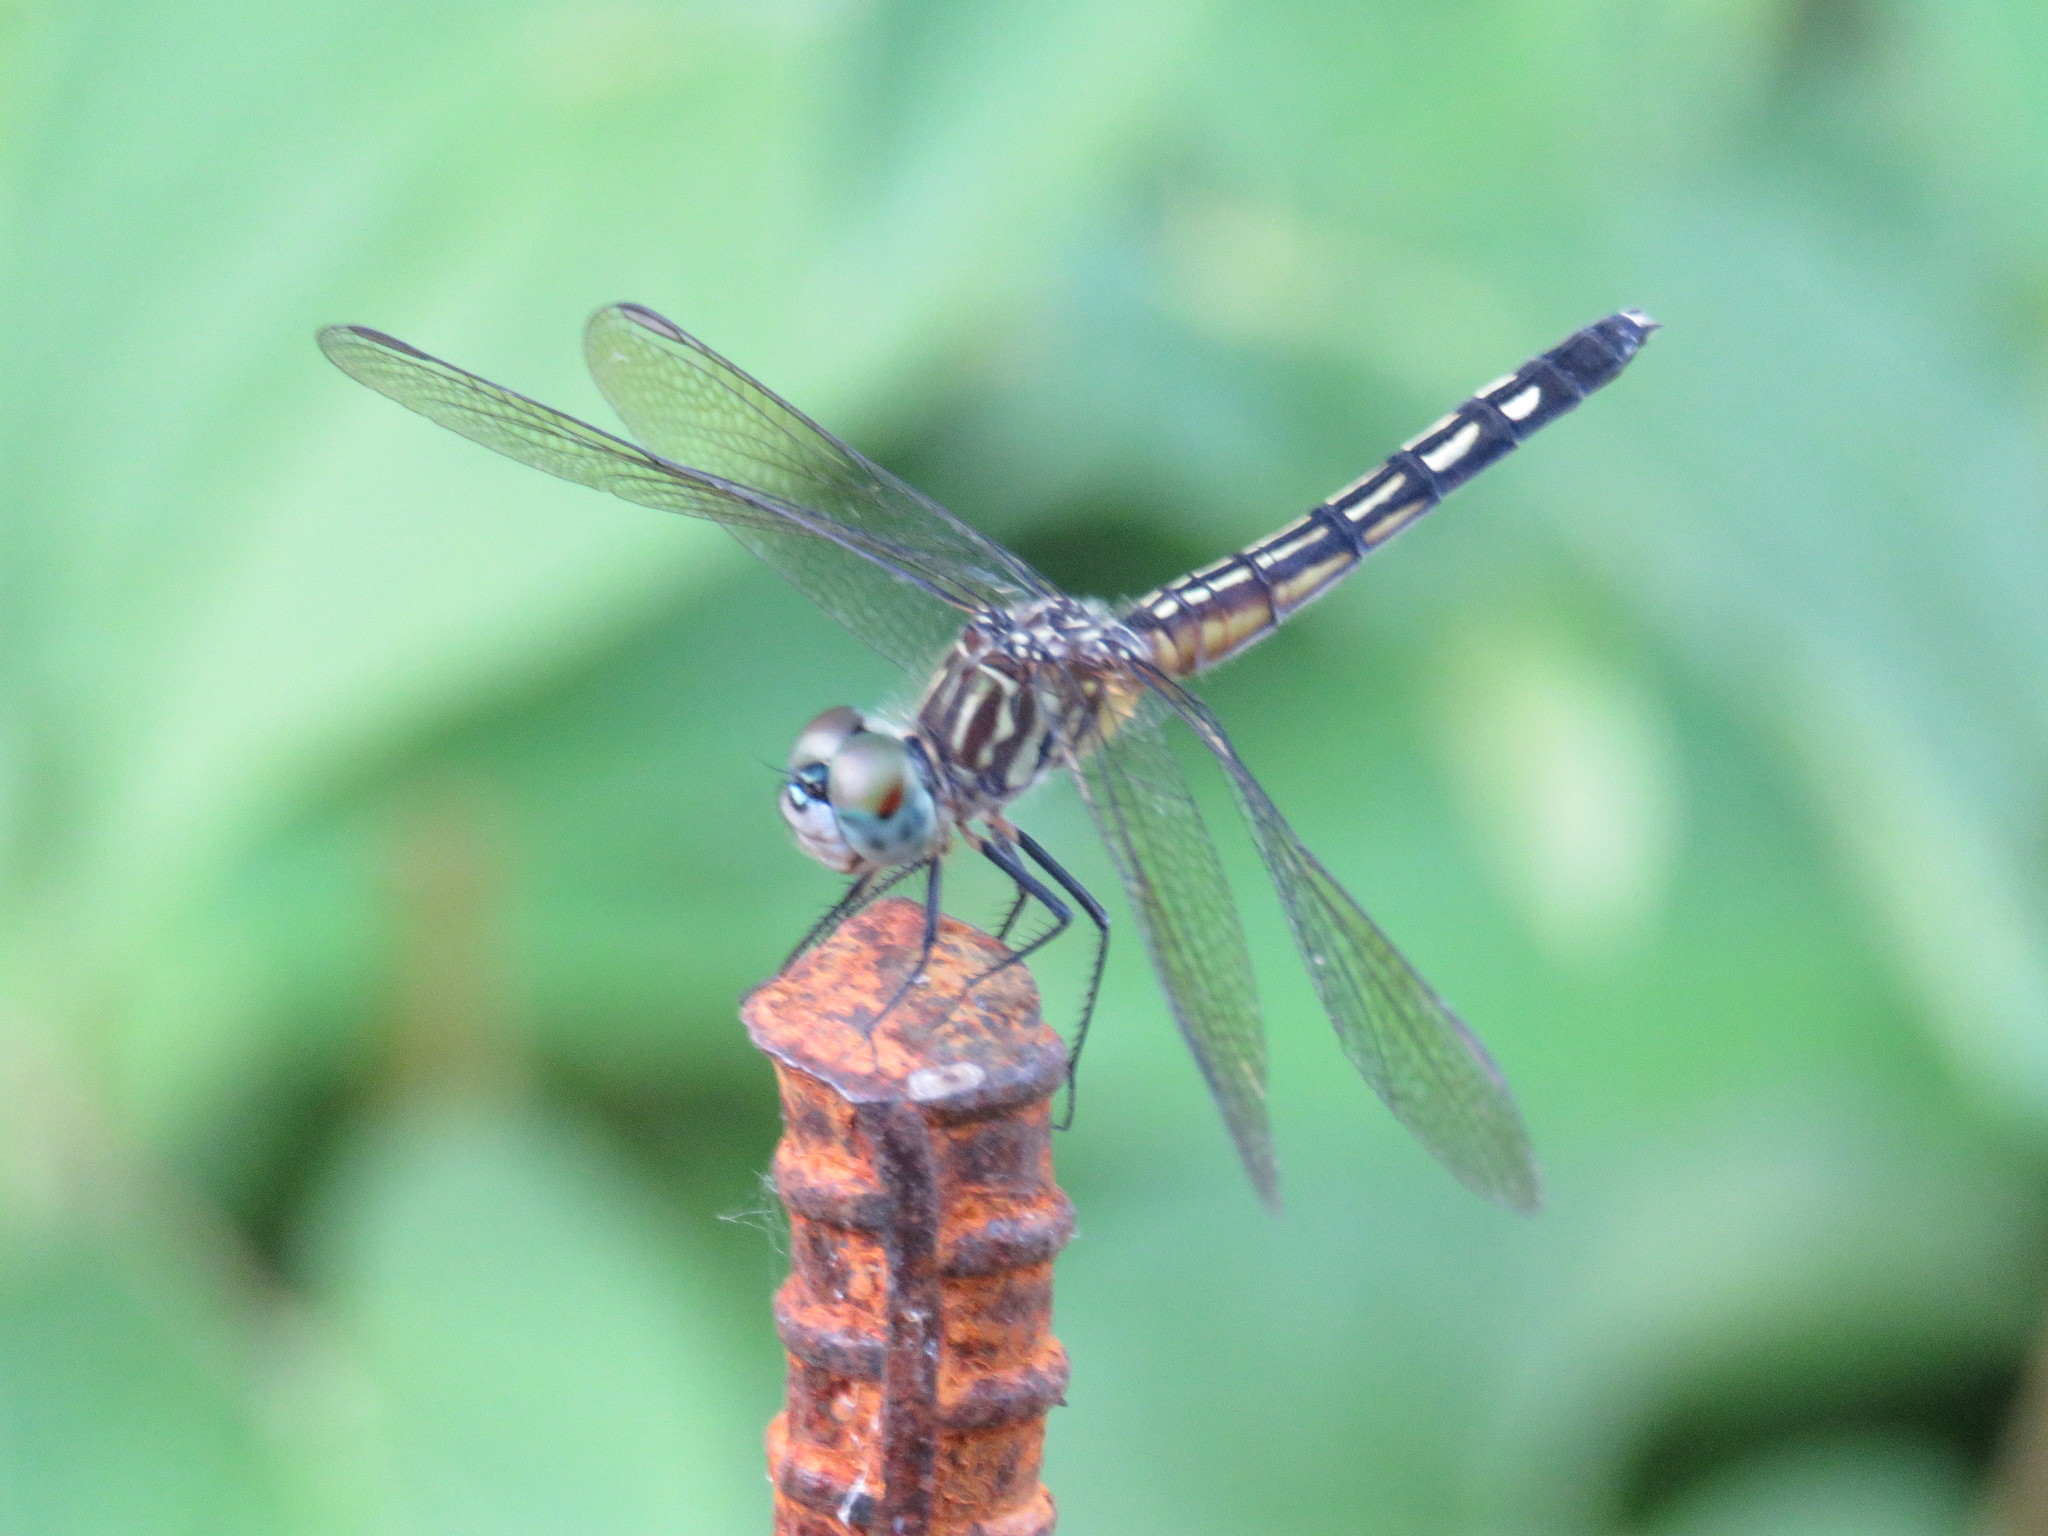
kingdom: Animalia
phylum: Arthropoda
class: Insecta
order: Odonata
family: Libellulidae
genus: Pachydiplax
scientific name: Pachydiplax longipennis
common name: Blue dasher
